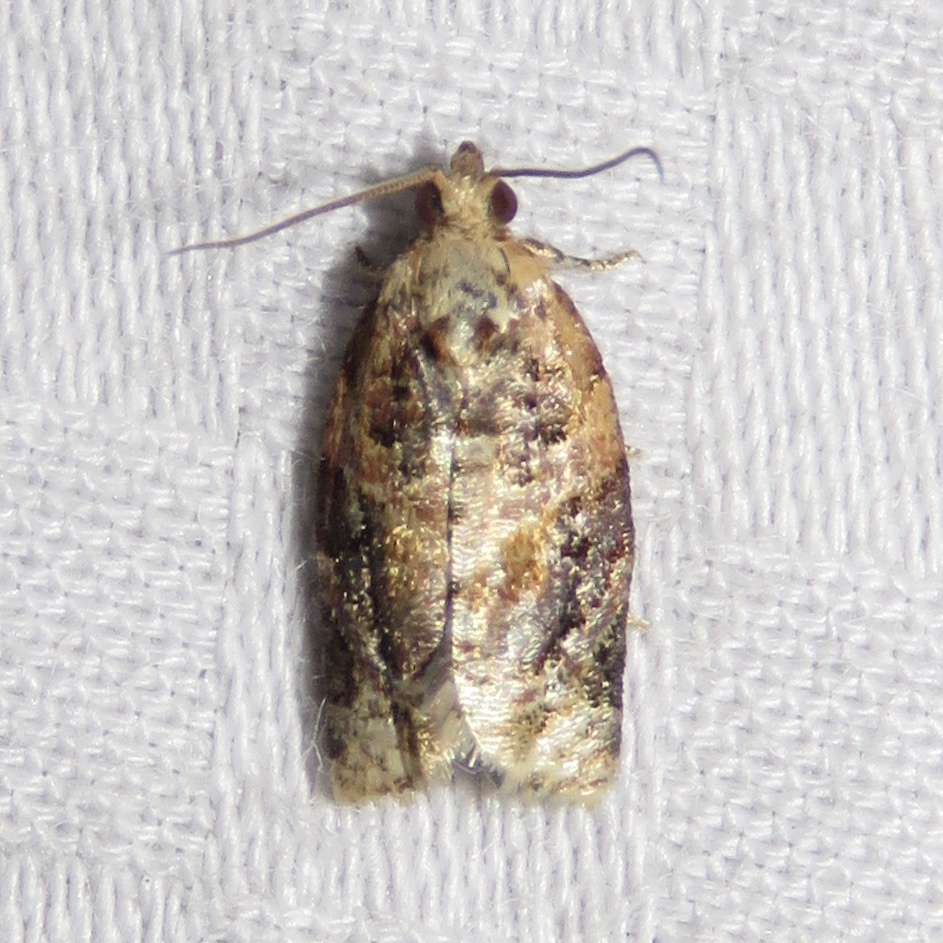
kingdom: Animalia
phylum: Arthropoda
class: Insecta
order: Lepidoptera
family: Tortricidae
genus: Argyrotaenia
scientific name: Argyrotaenia velutinana
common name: Red-banded leafroller moth
